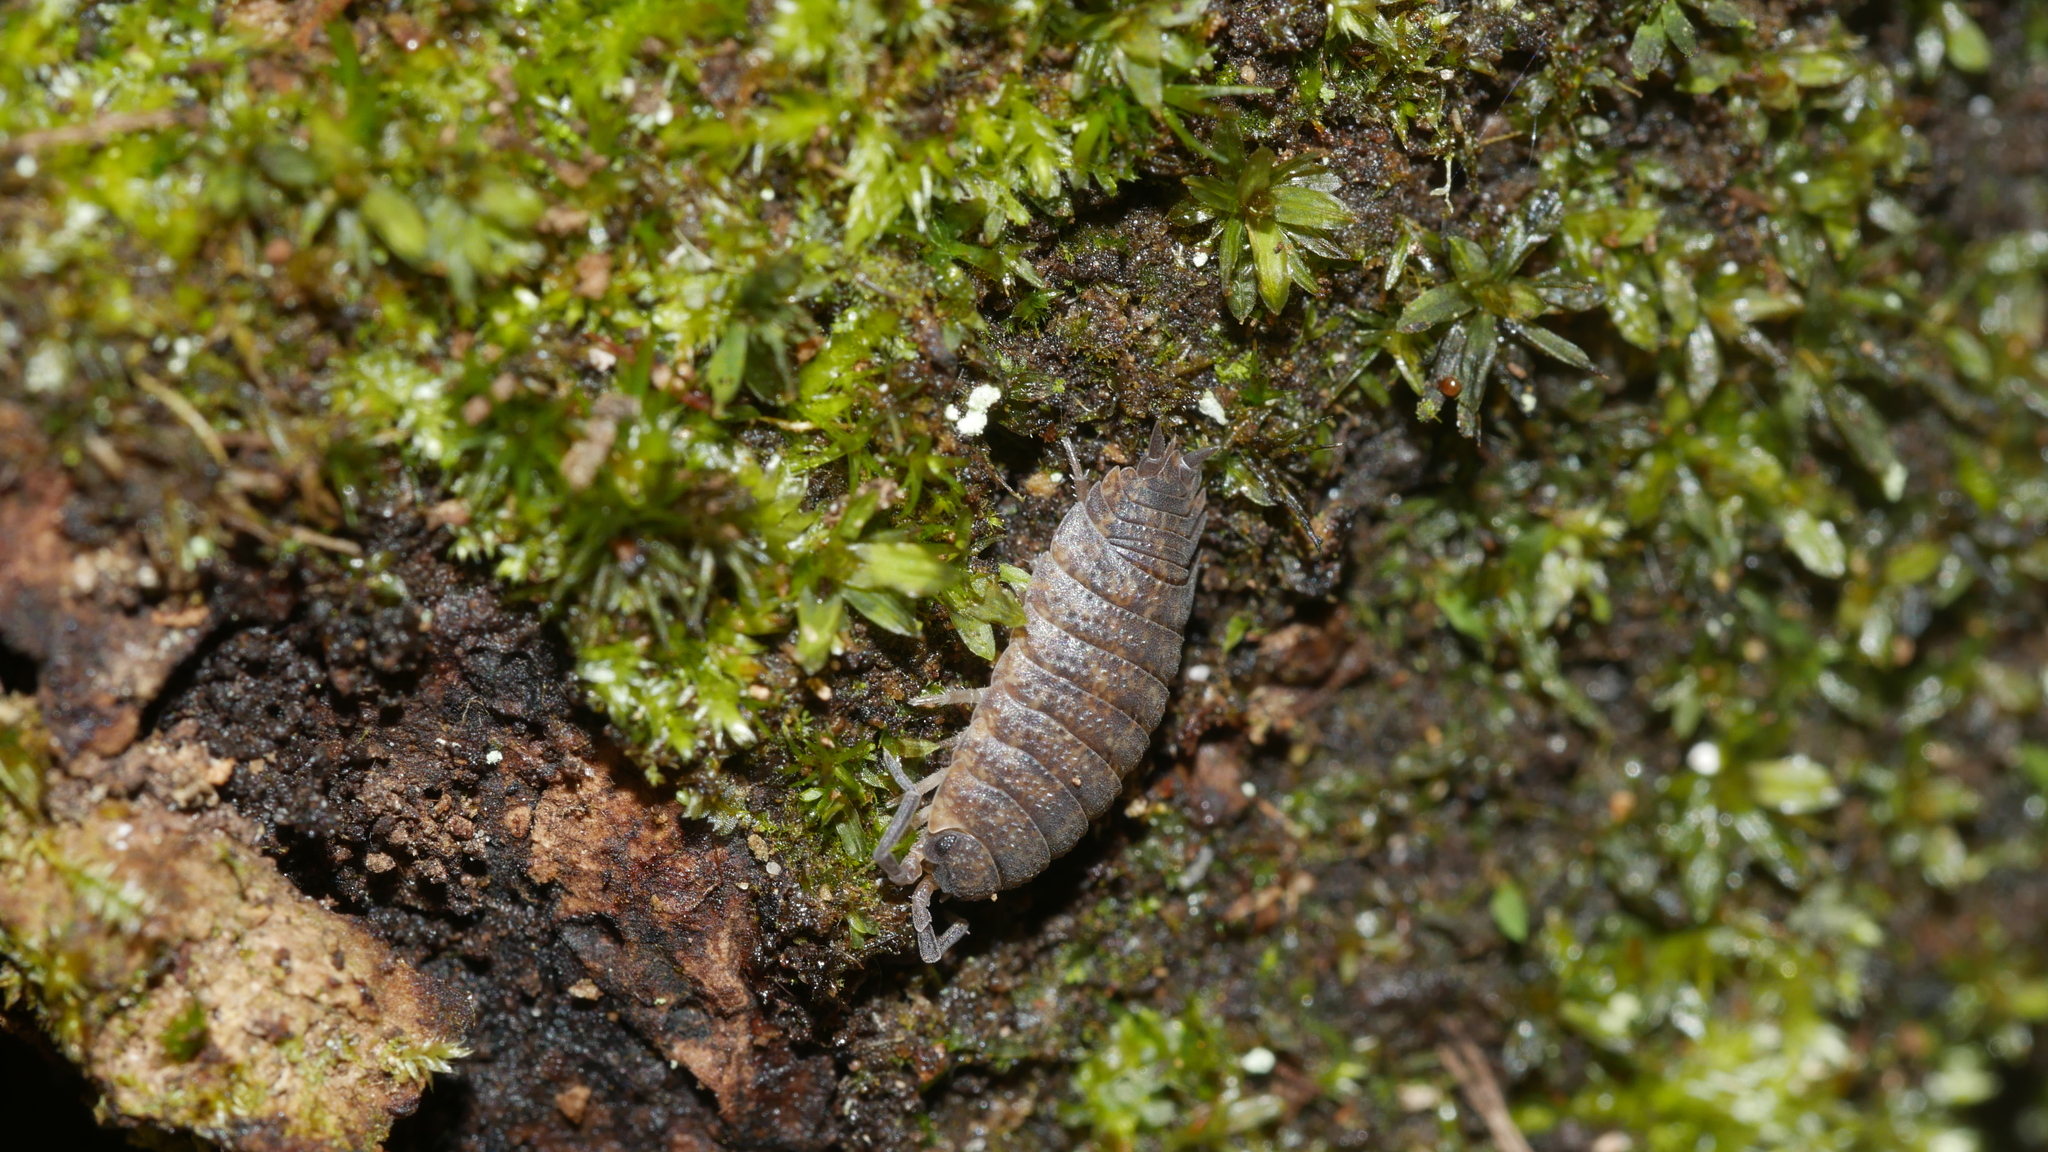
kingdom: Animalia
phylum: Arthropoda
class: Malacostraca
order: Isopoda
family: Porcellionidae
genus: Porcellio
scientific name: Porcellio scaber
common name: Common rough woodlouse
